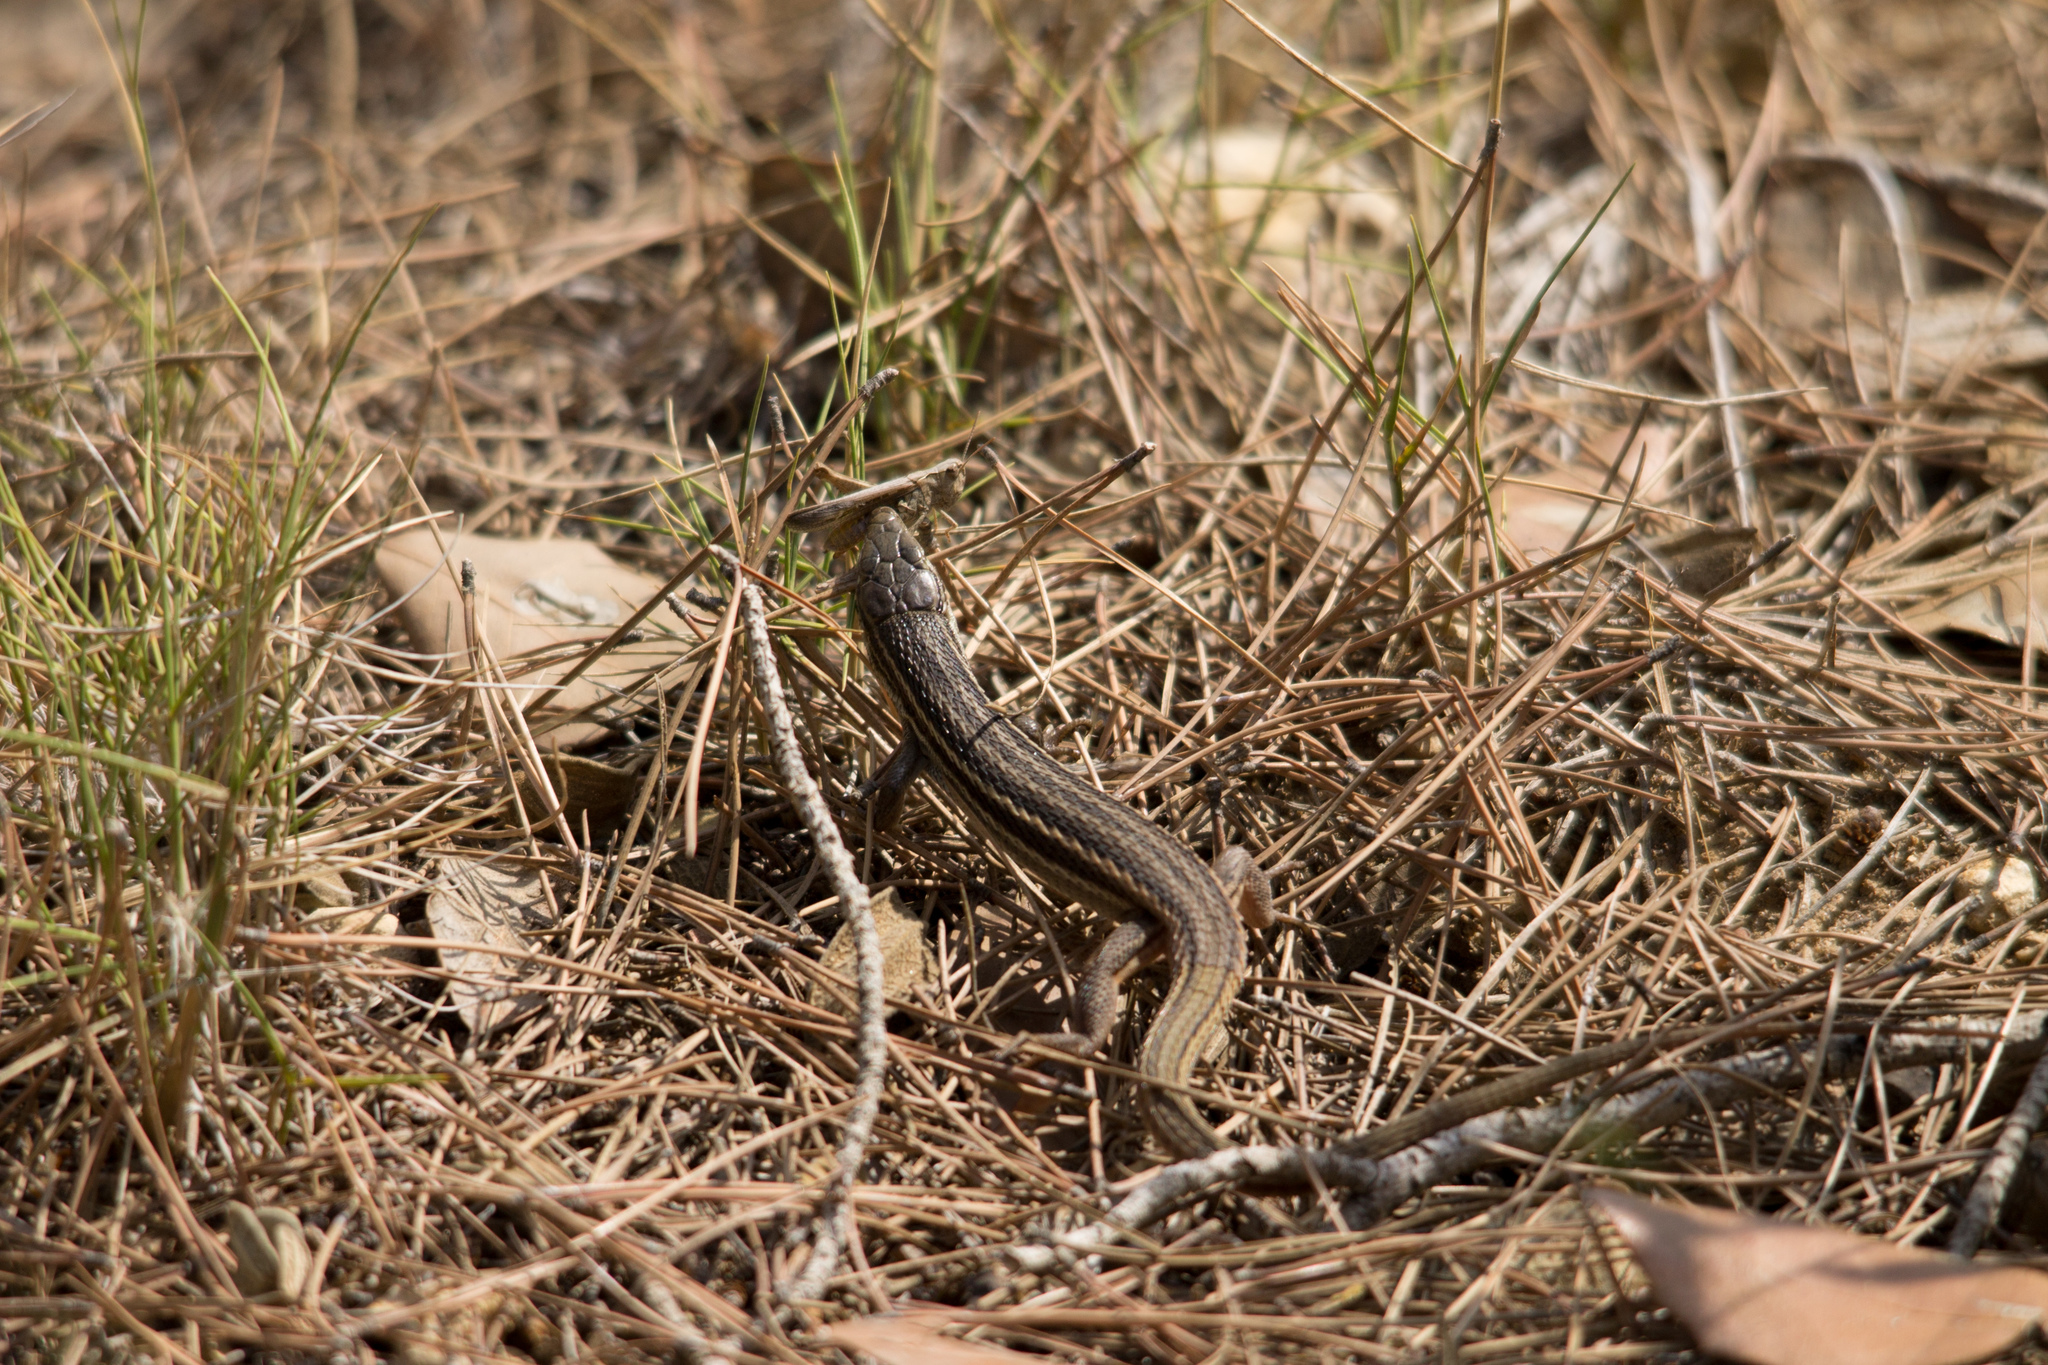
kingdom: Animalia
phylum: Chordata
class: Squamata
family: Lacertidae
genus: Psammodromus
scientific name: Psammodromus algirus
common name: Algerian psammodromus
